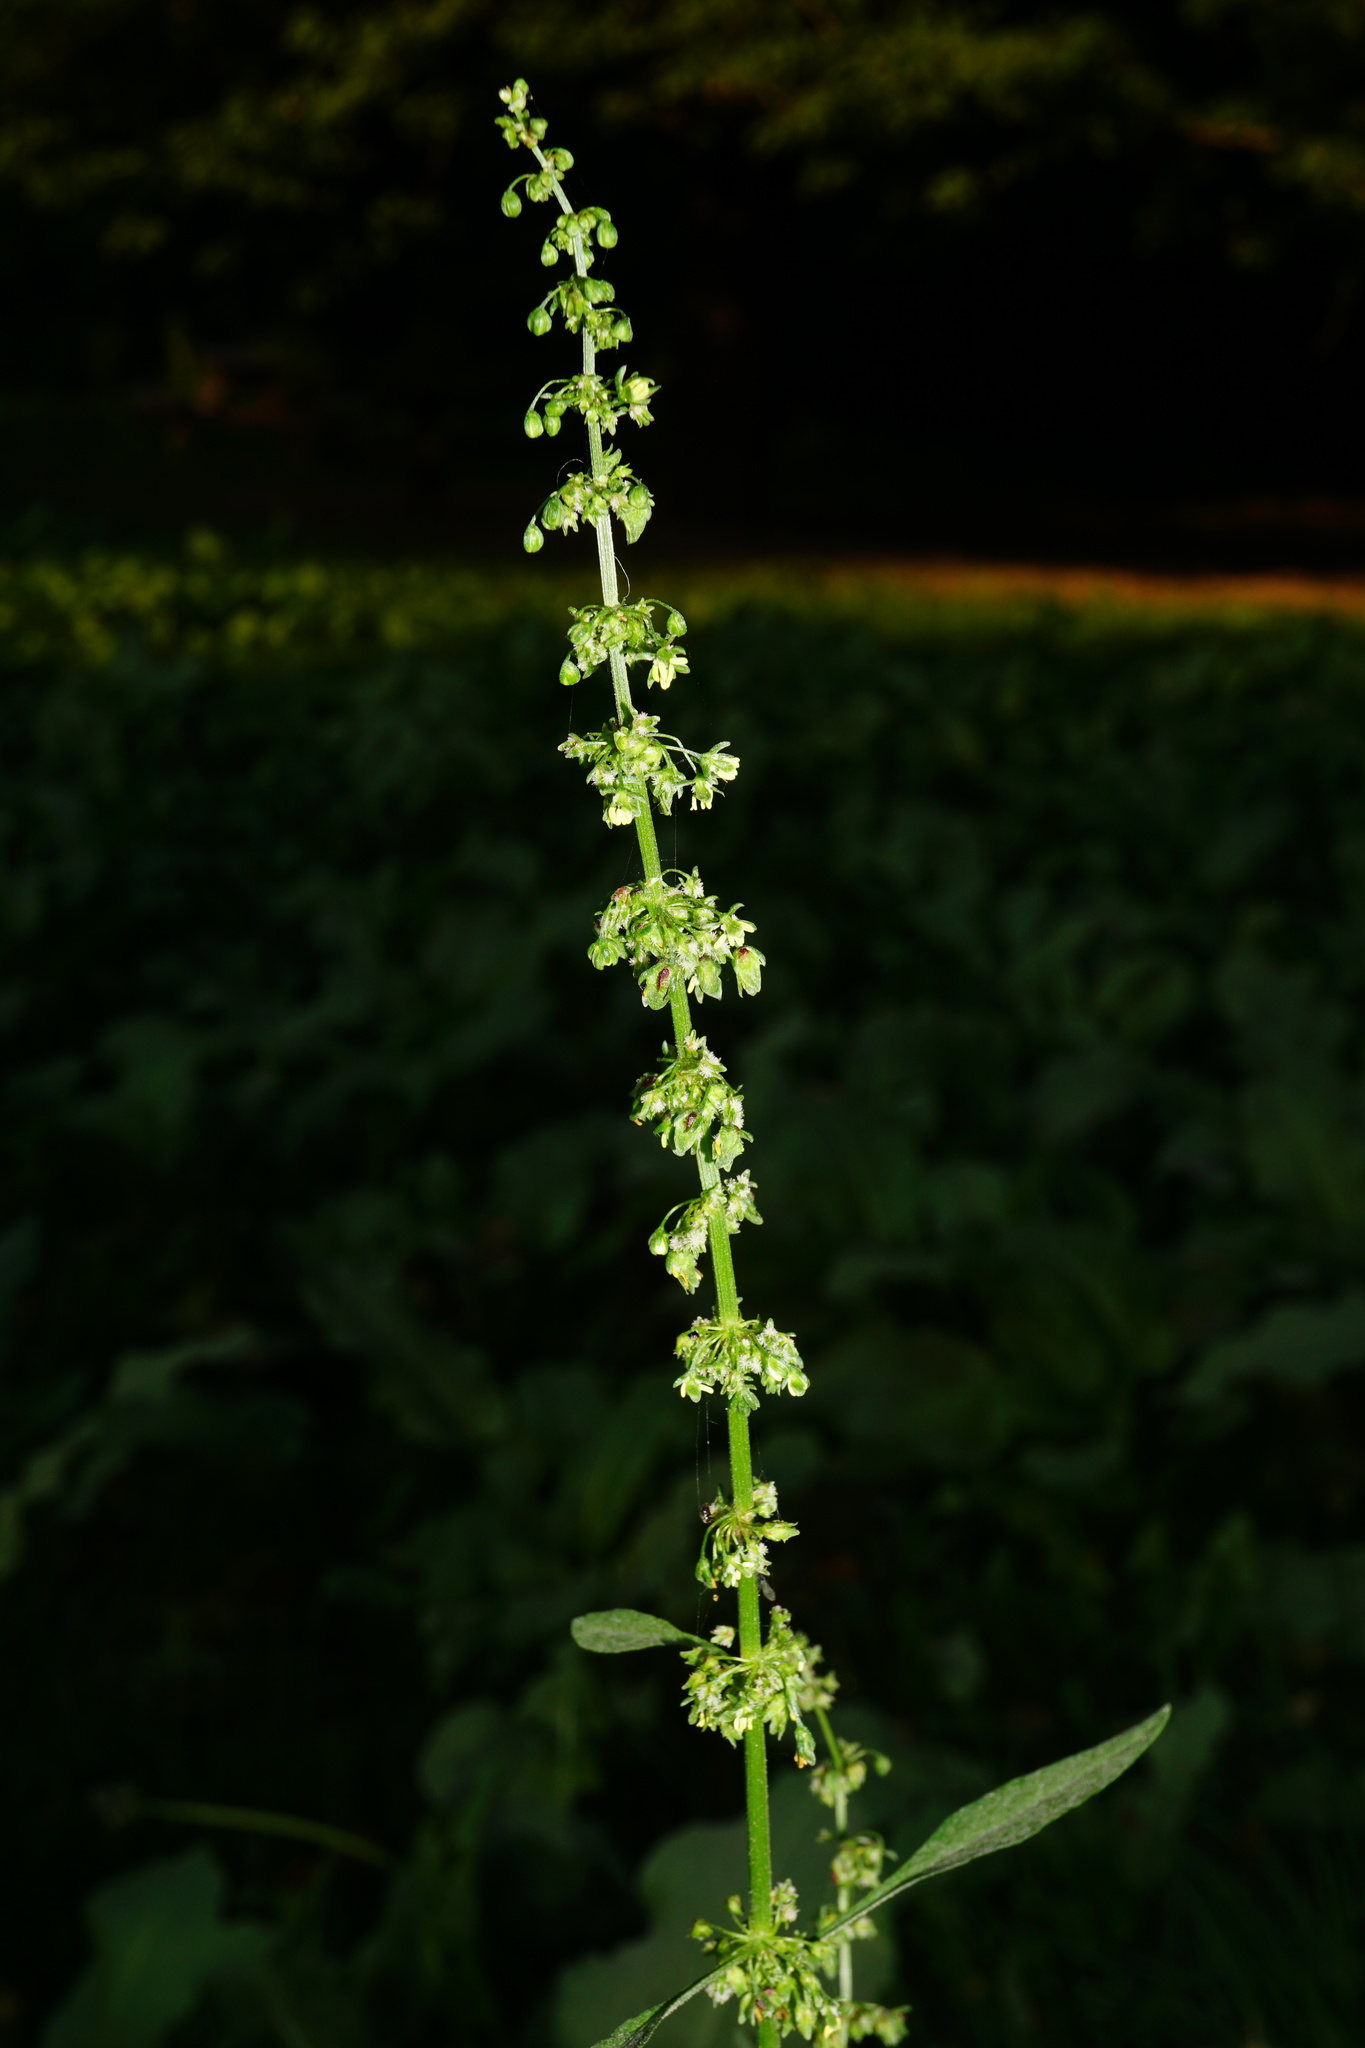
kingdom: Plantae
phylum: Tracheophyta
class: Magnoliopsida
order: Caryophyllales
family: Polygonaceae
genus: Rumex
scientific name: Rumex obtusifolius
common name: Bitter dock
